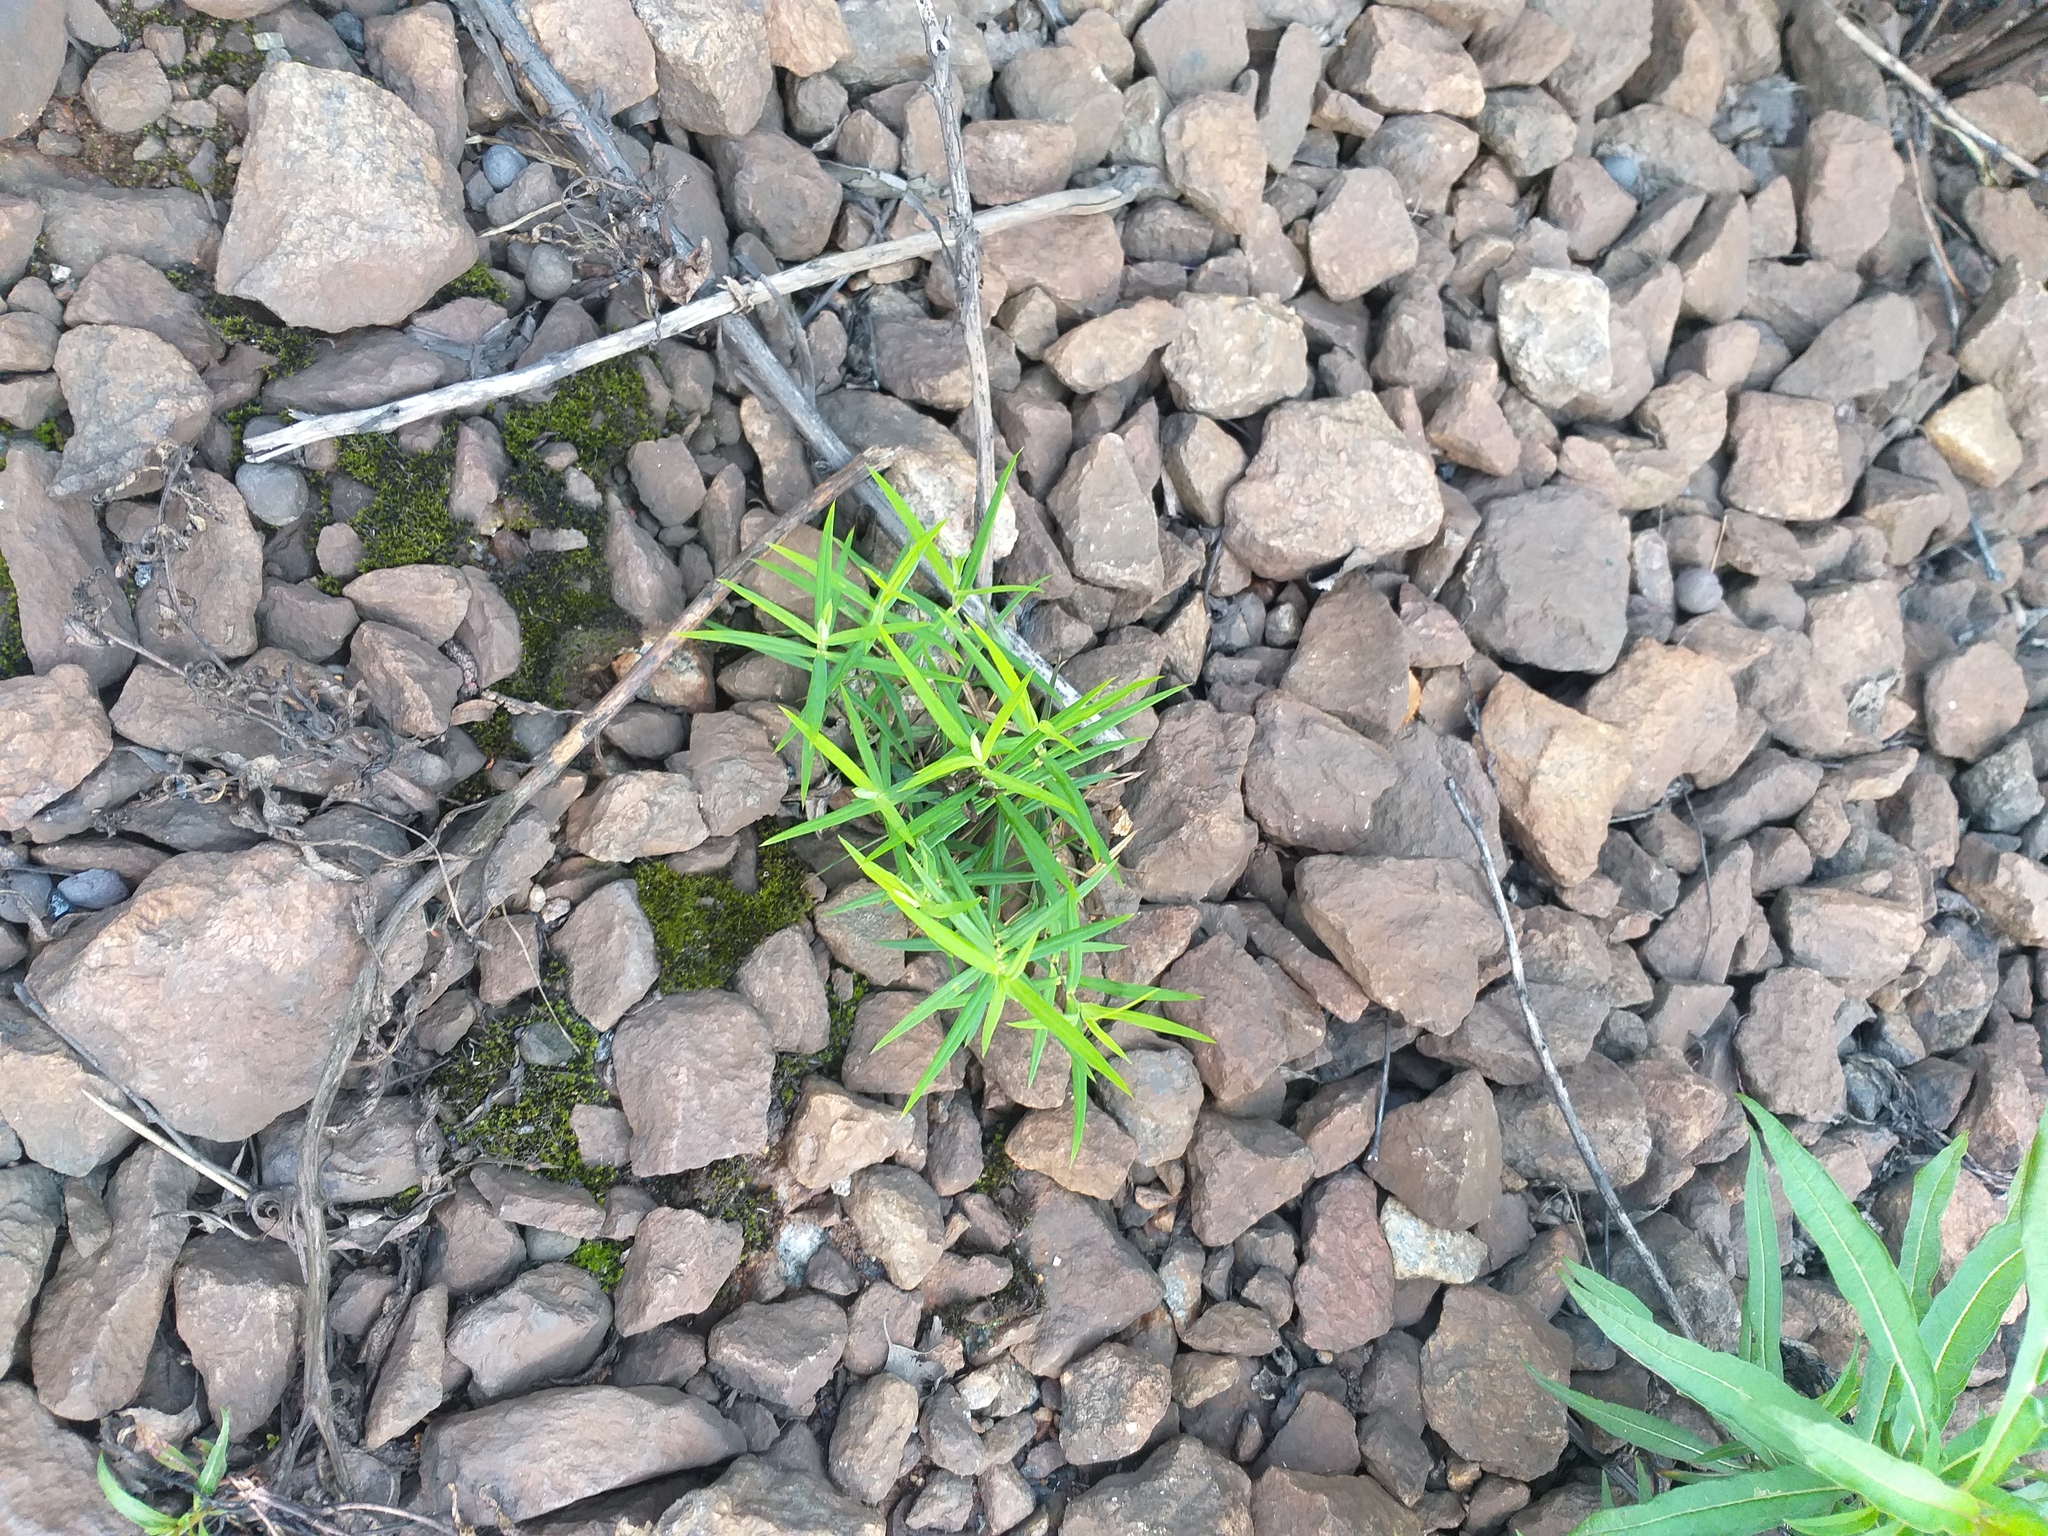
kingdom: Plantae
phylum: Tracheophyta
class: Magnoliopsida
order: Caryophyllales
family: Caryophyllaceae
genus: Rabelera
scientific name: Rabelera holostea
